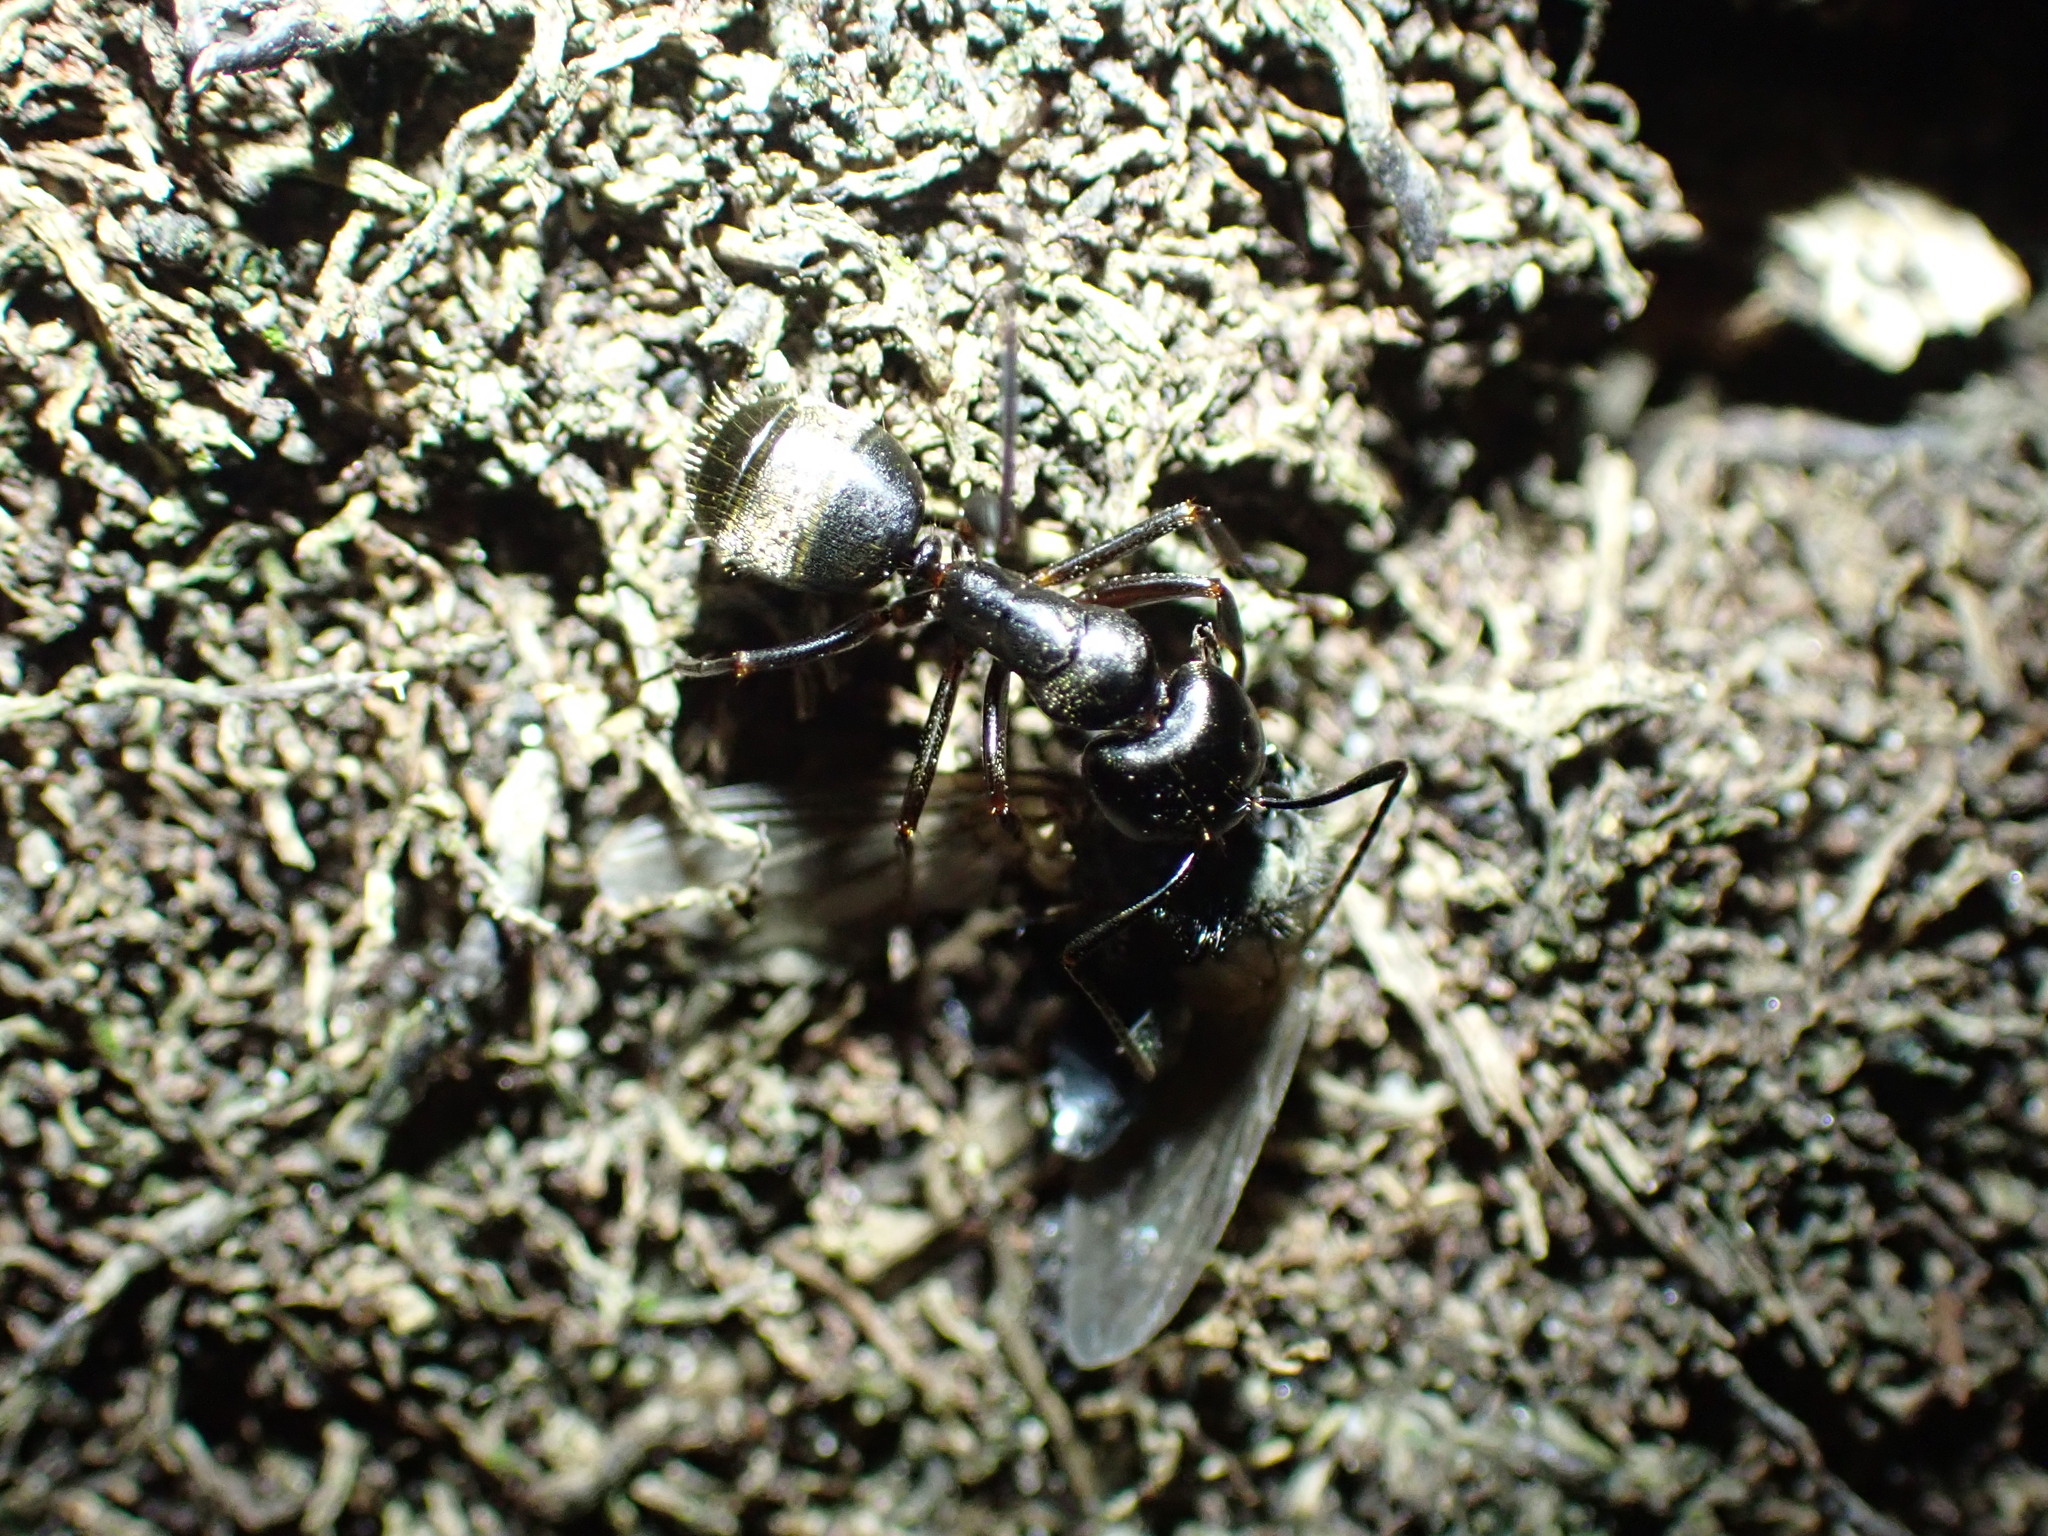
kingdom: Animalia
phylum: Arthropoda
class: Insecta
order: Hymenoptera
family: Formicidae
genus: Camponotus
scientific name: Camponotus pennsylvanicus
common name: Black carpenter ant
